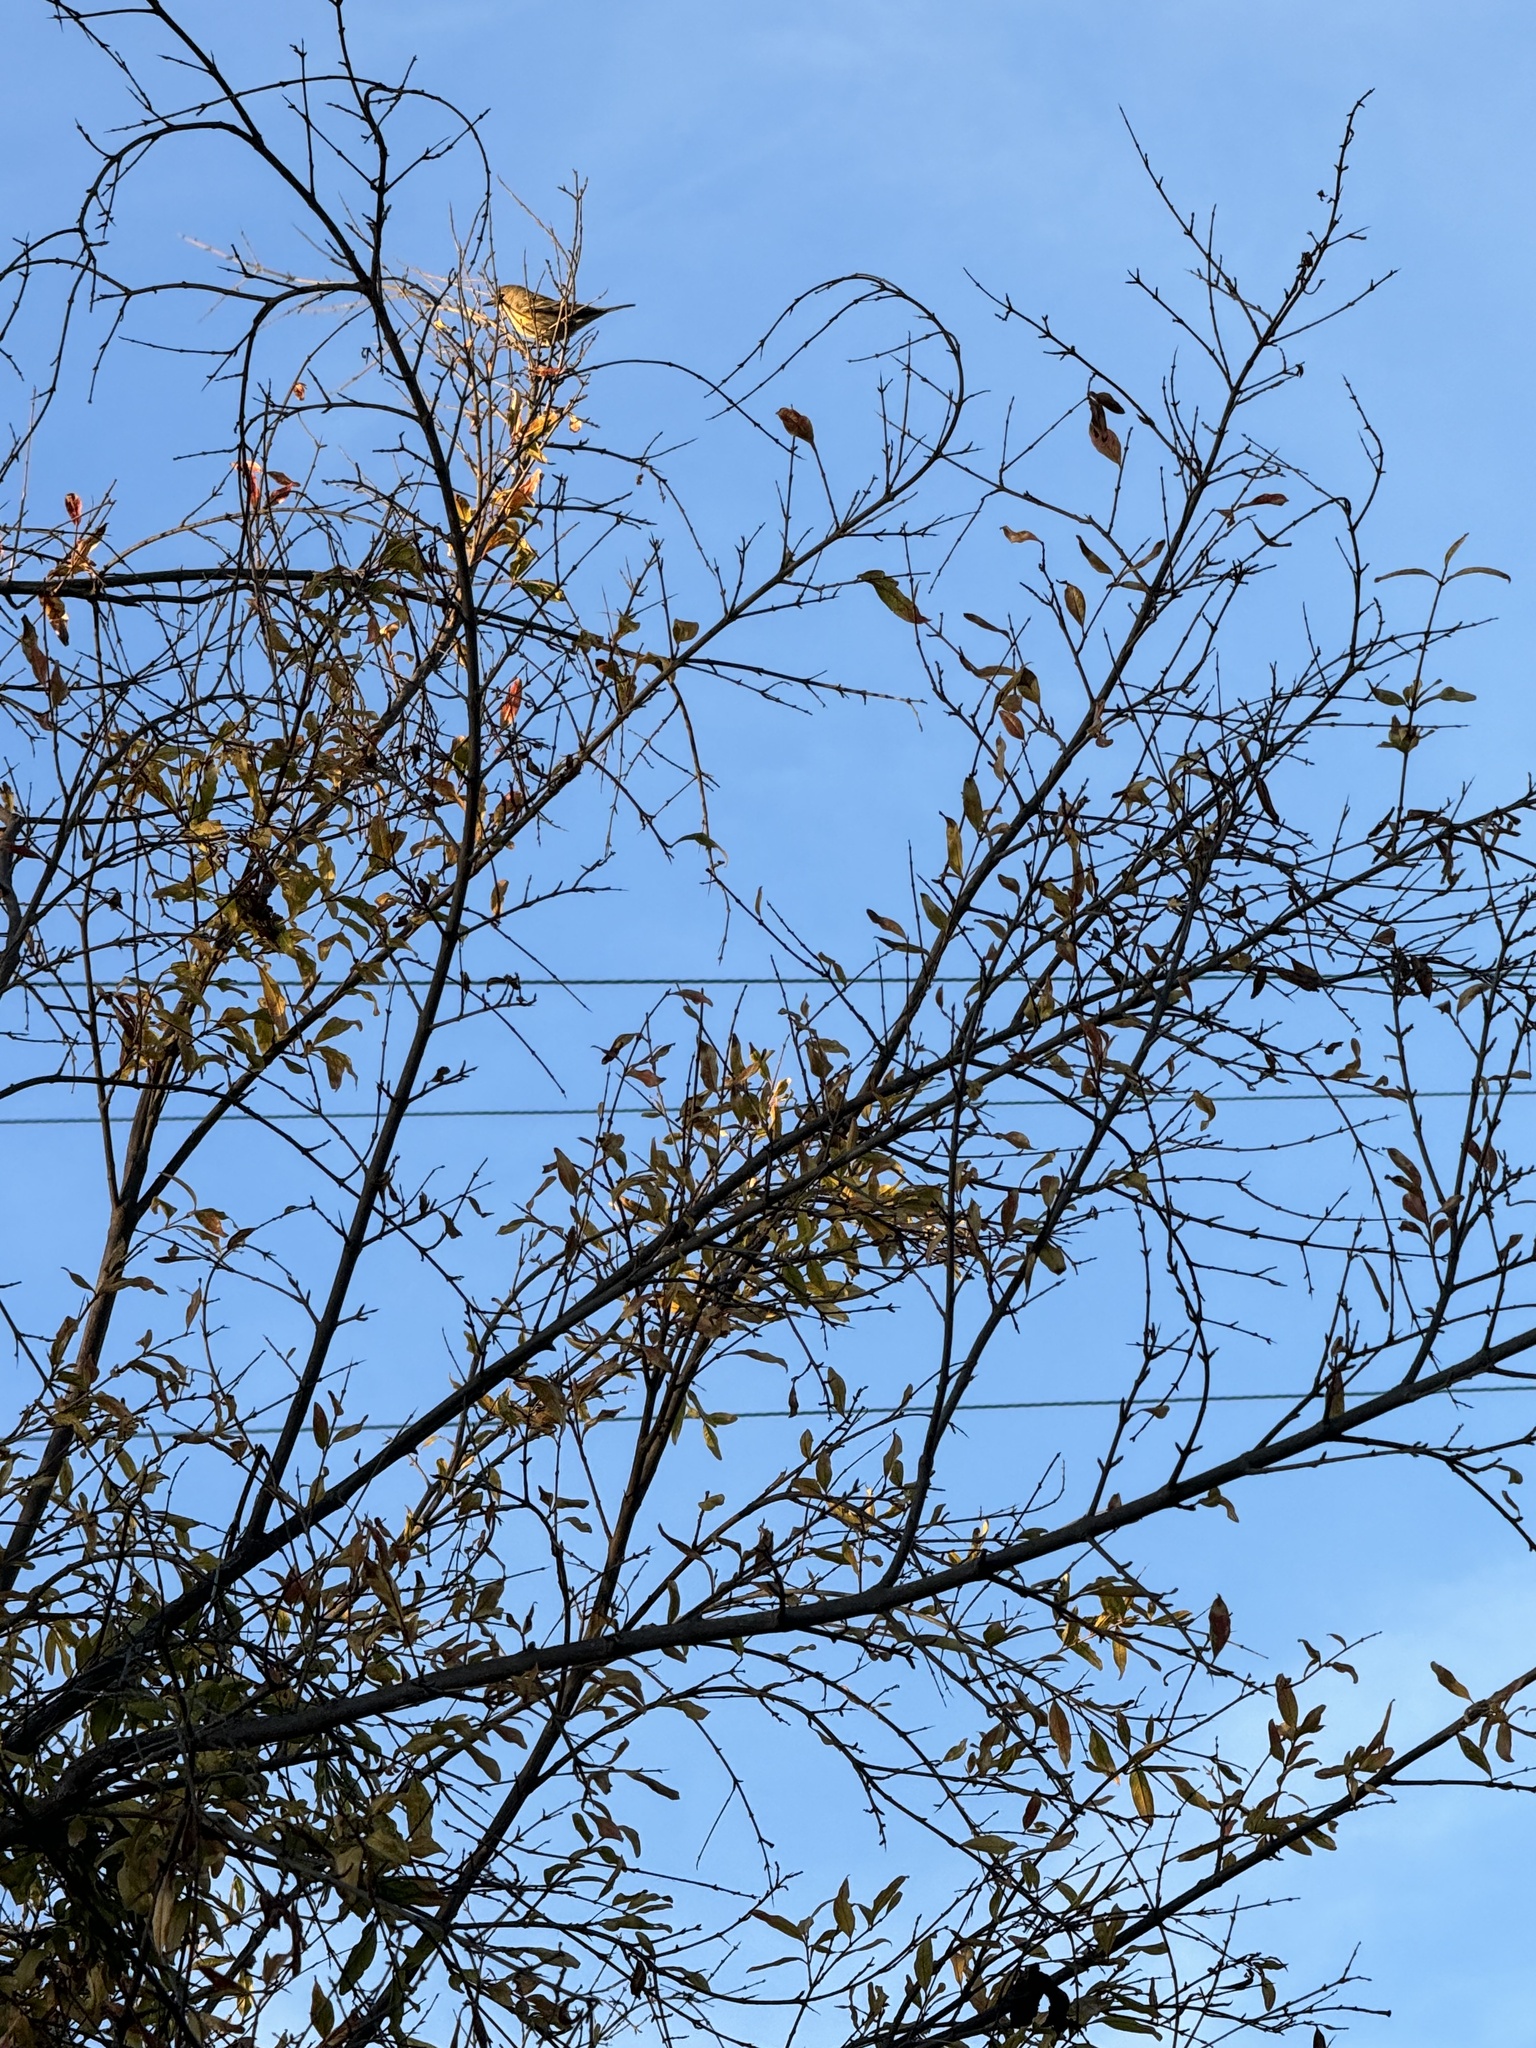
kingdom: Animalia
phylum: Chordata
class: Aves
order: Passeriformes
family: Parulidae
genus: Setophaga
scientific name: Setophaga coronata
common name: Myrtle warbler
